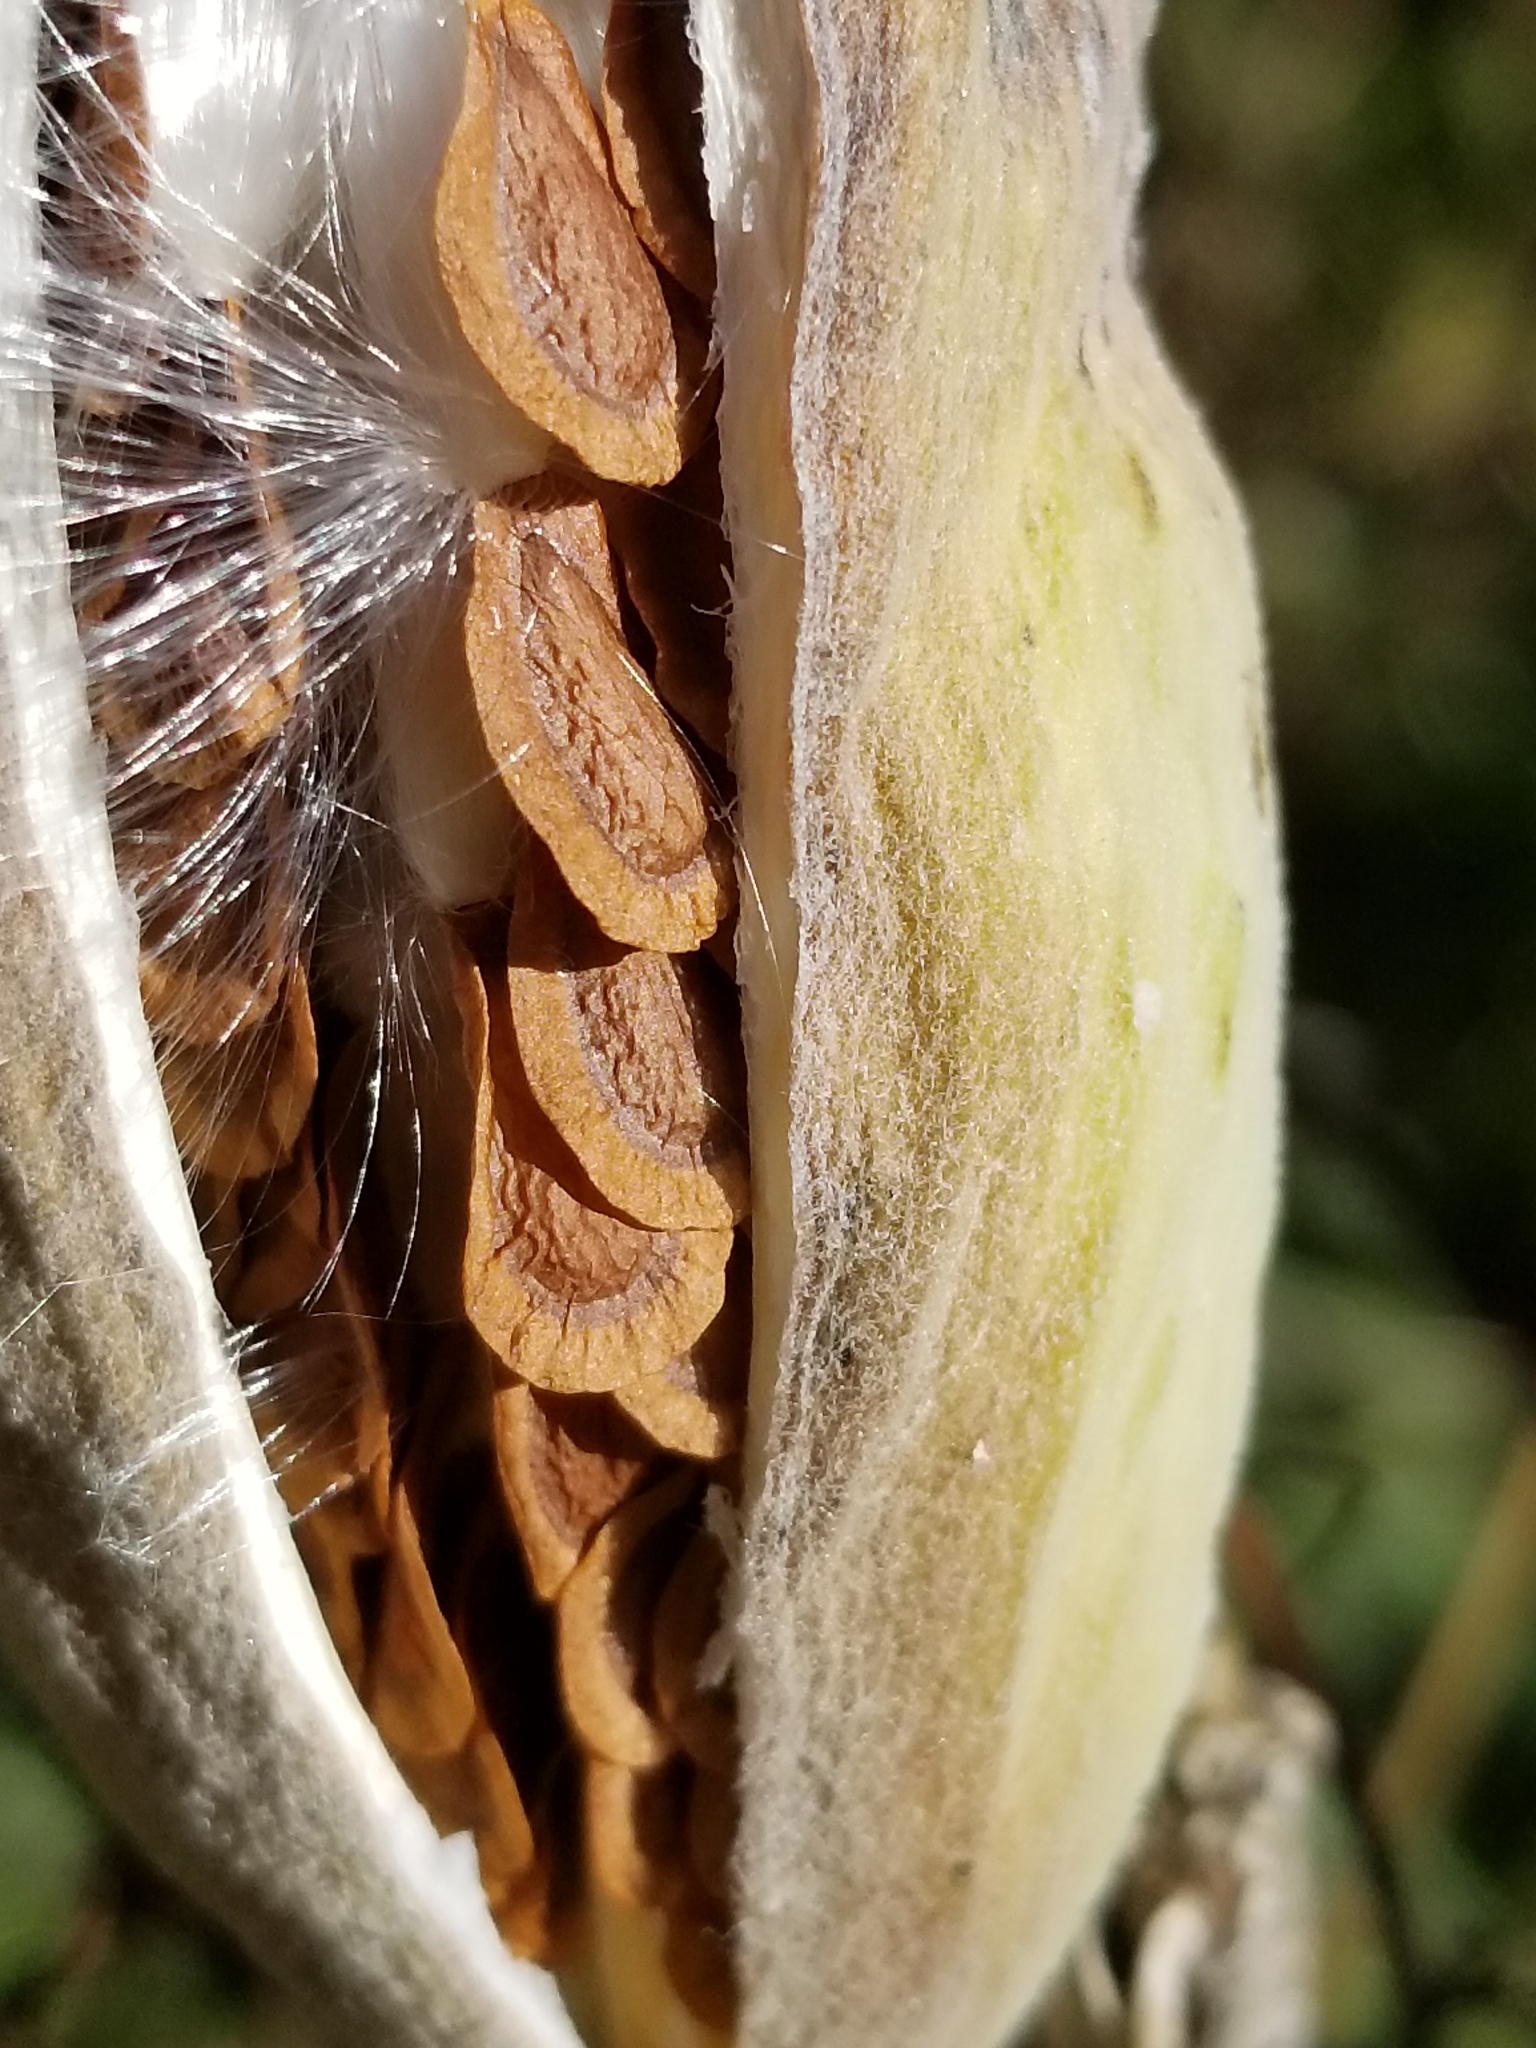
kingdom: Plantae
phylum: Tracheophyta
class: Magnoliopsida
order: Gentianales
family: Apocynaceae
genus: Asclepias
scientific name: Asclepias syriaca
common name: Common milkweed
